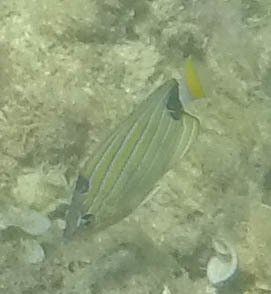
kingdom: Animalia
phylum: Chordata
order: Perciformes
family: Chaetodontidae
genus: Chaetodon
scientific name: Chaetodon fremblii
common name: Bluestriped butterflyfish
